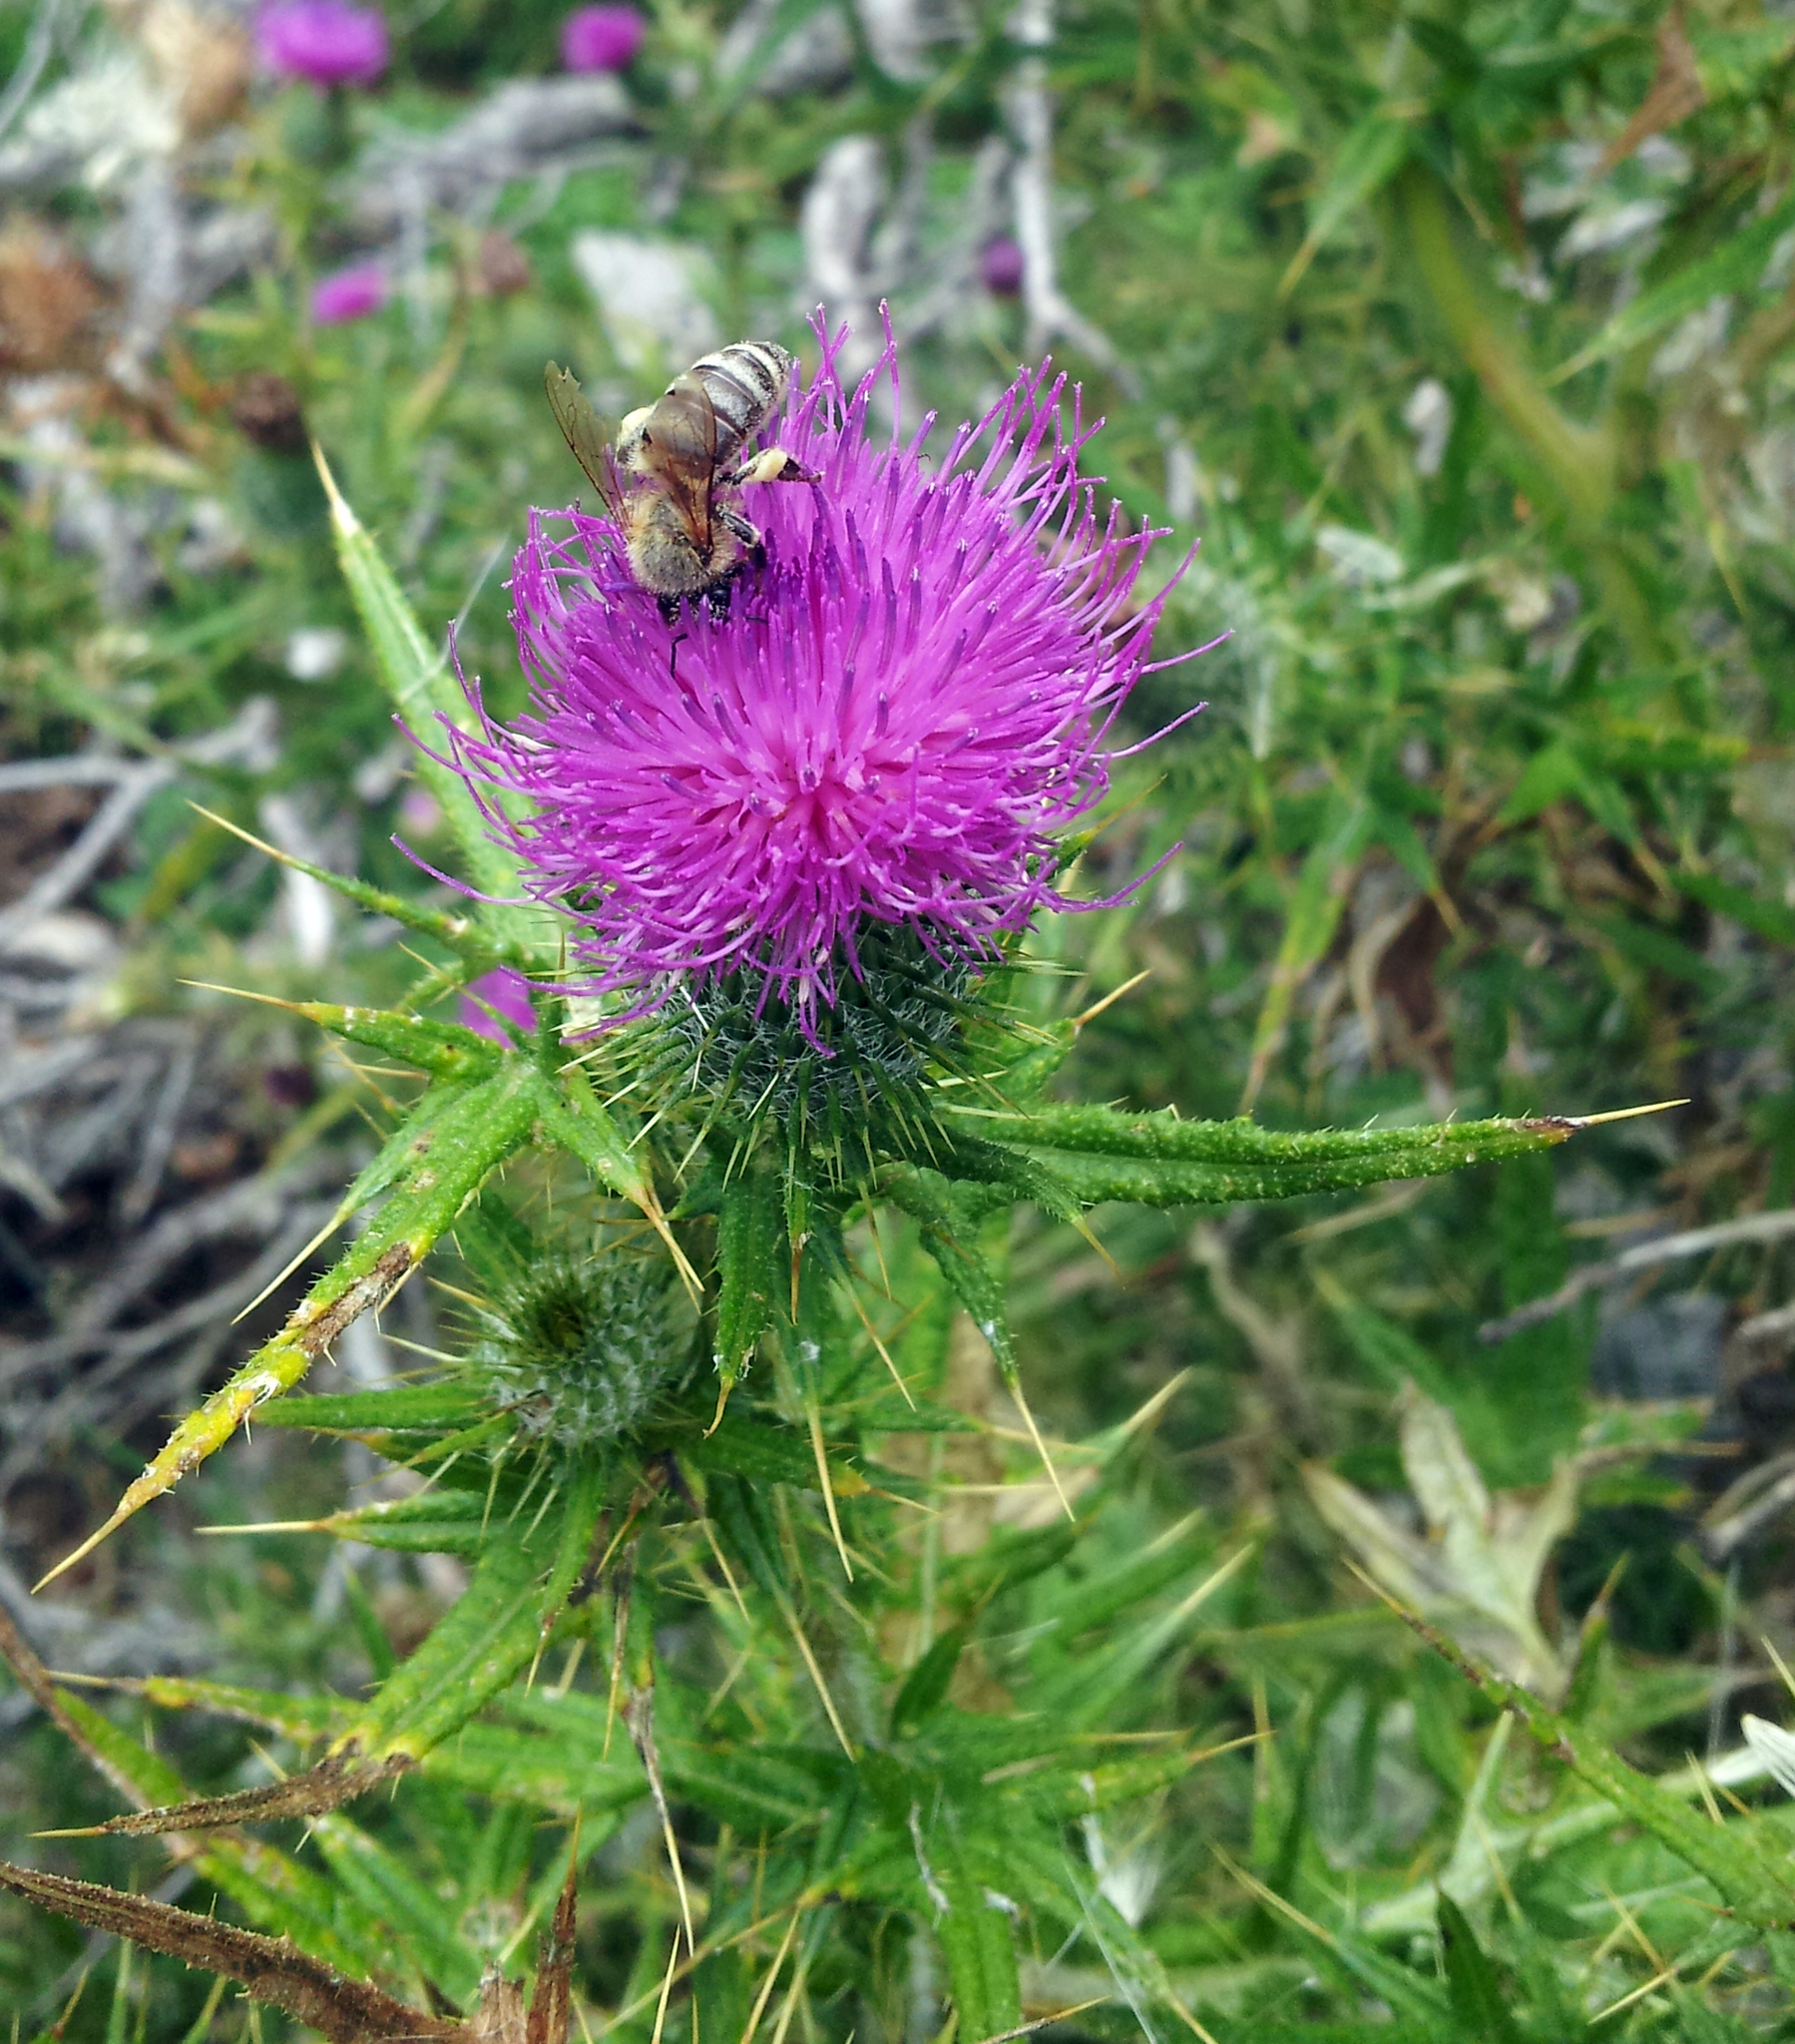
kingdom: Animalia
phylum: Arthropoda
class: Insecta
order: Hymenoptera
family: Apidae
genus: Apis
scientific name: Apis mellifera
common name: Honey bee
